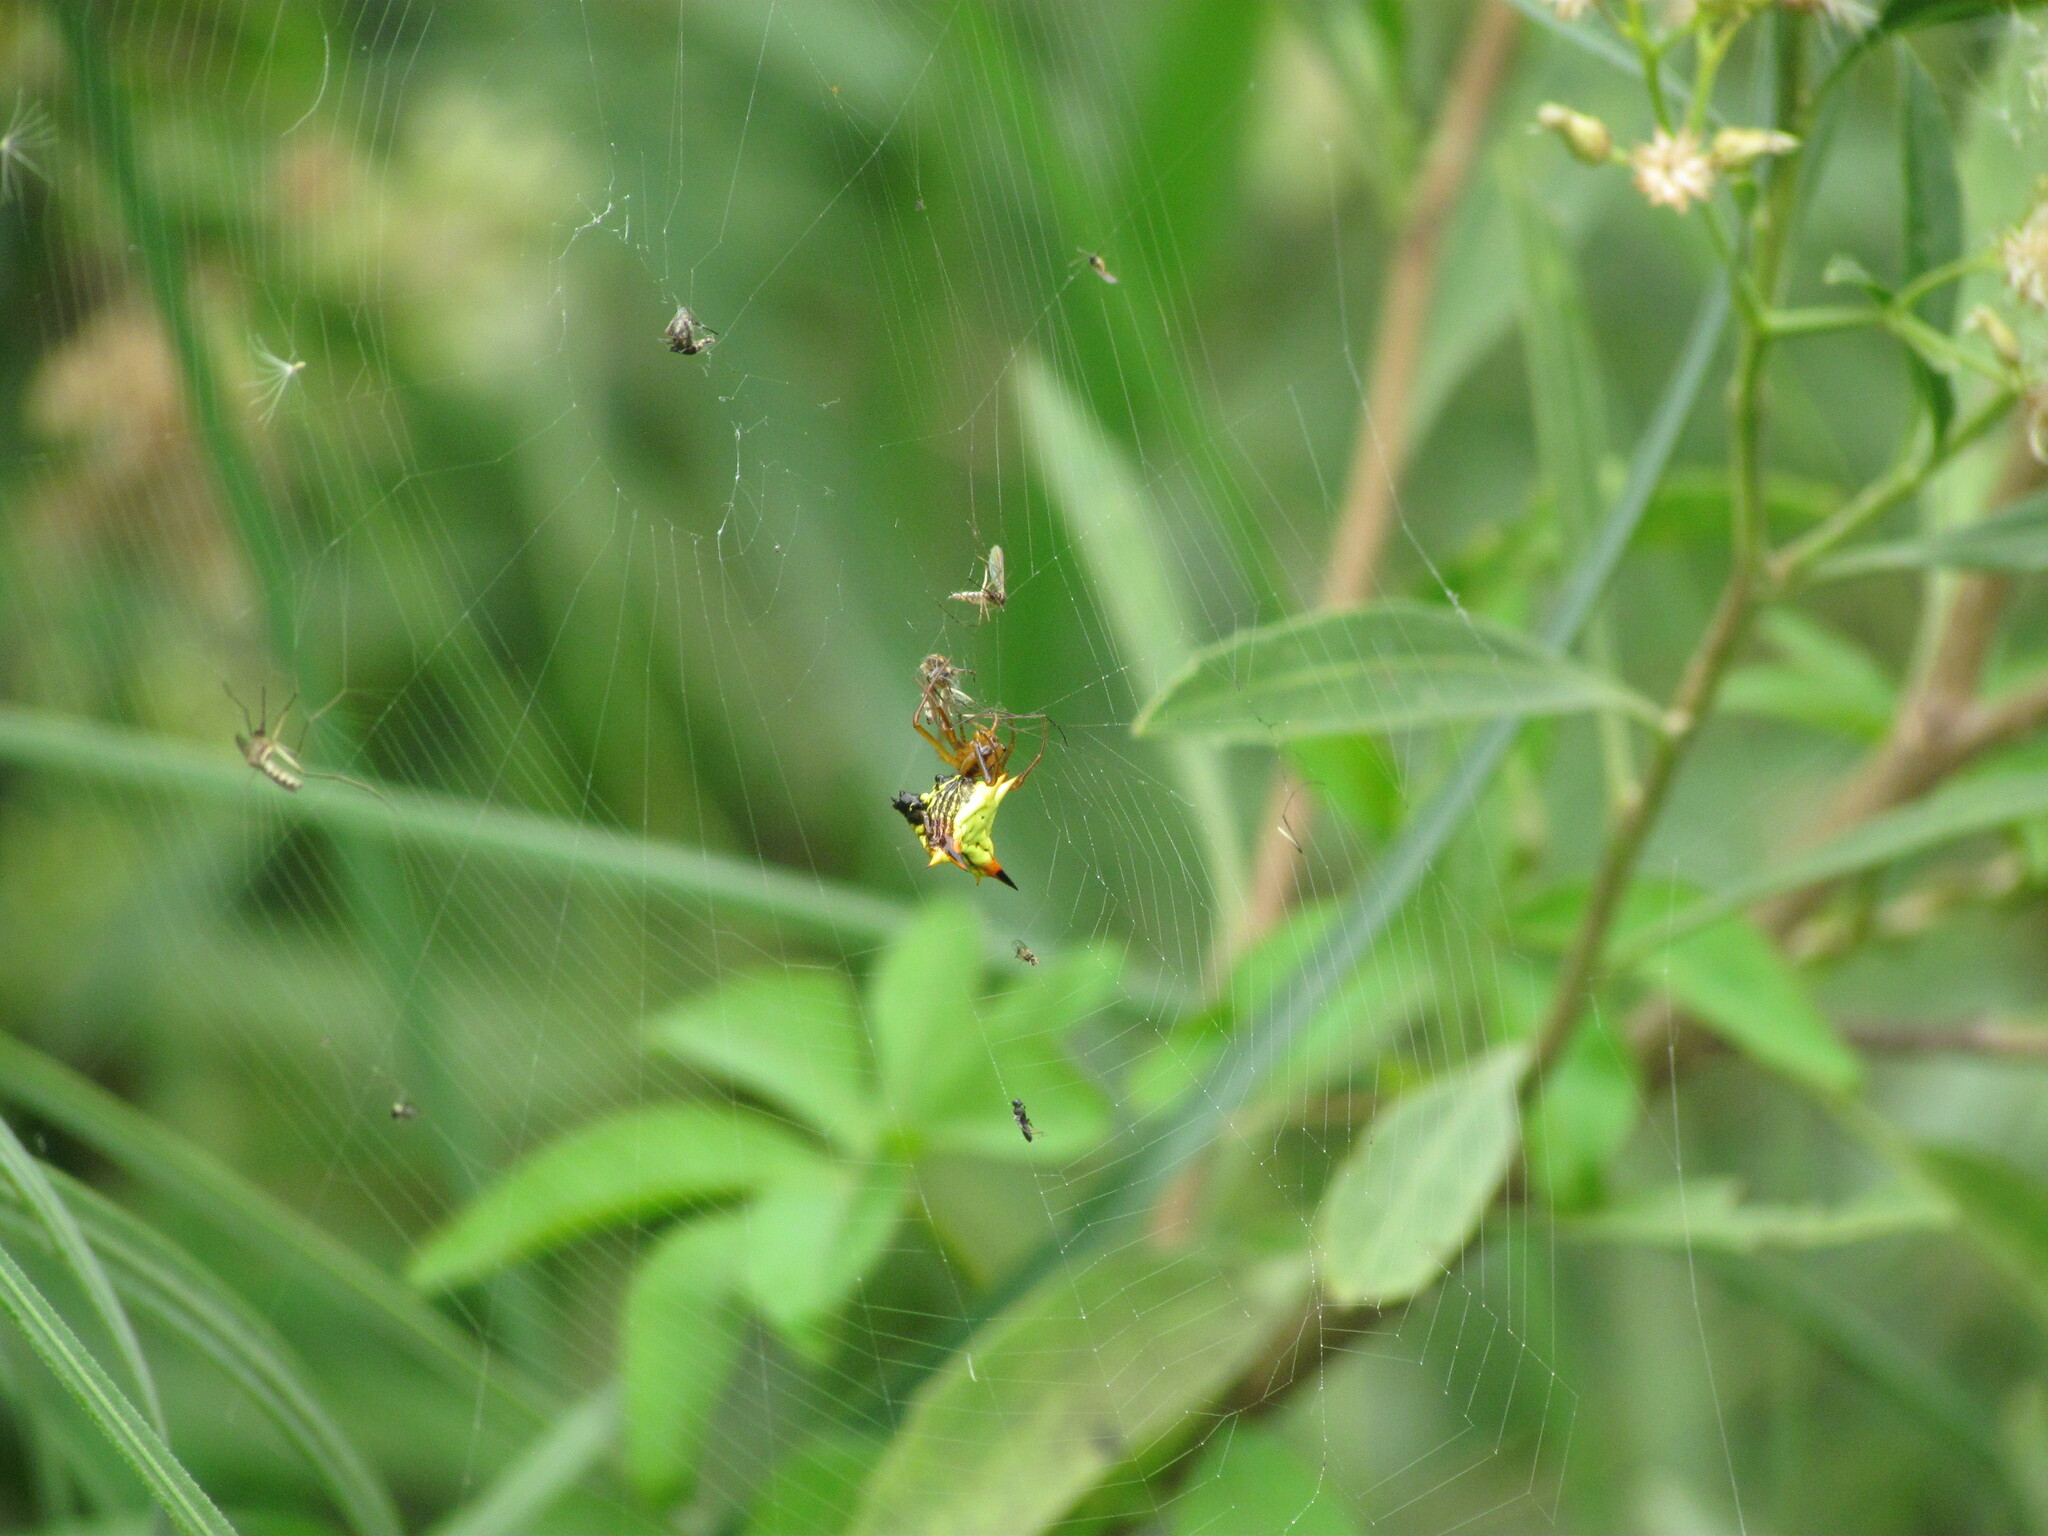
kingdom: Animalia
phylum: Arthropoda
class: Arachnida
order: Araneae
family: Araneidae
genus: Micrathena
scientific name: Micrathena furcata
